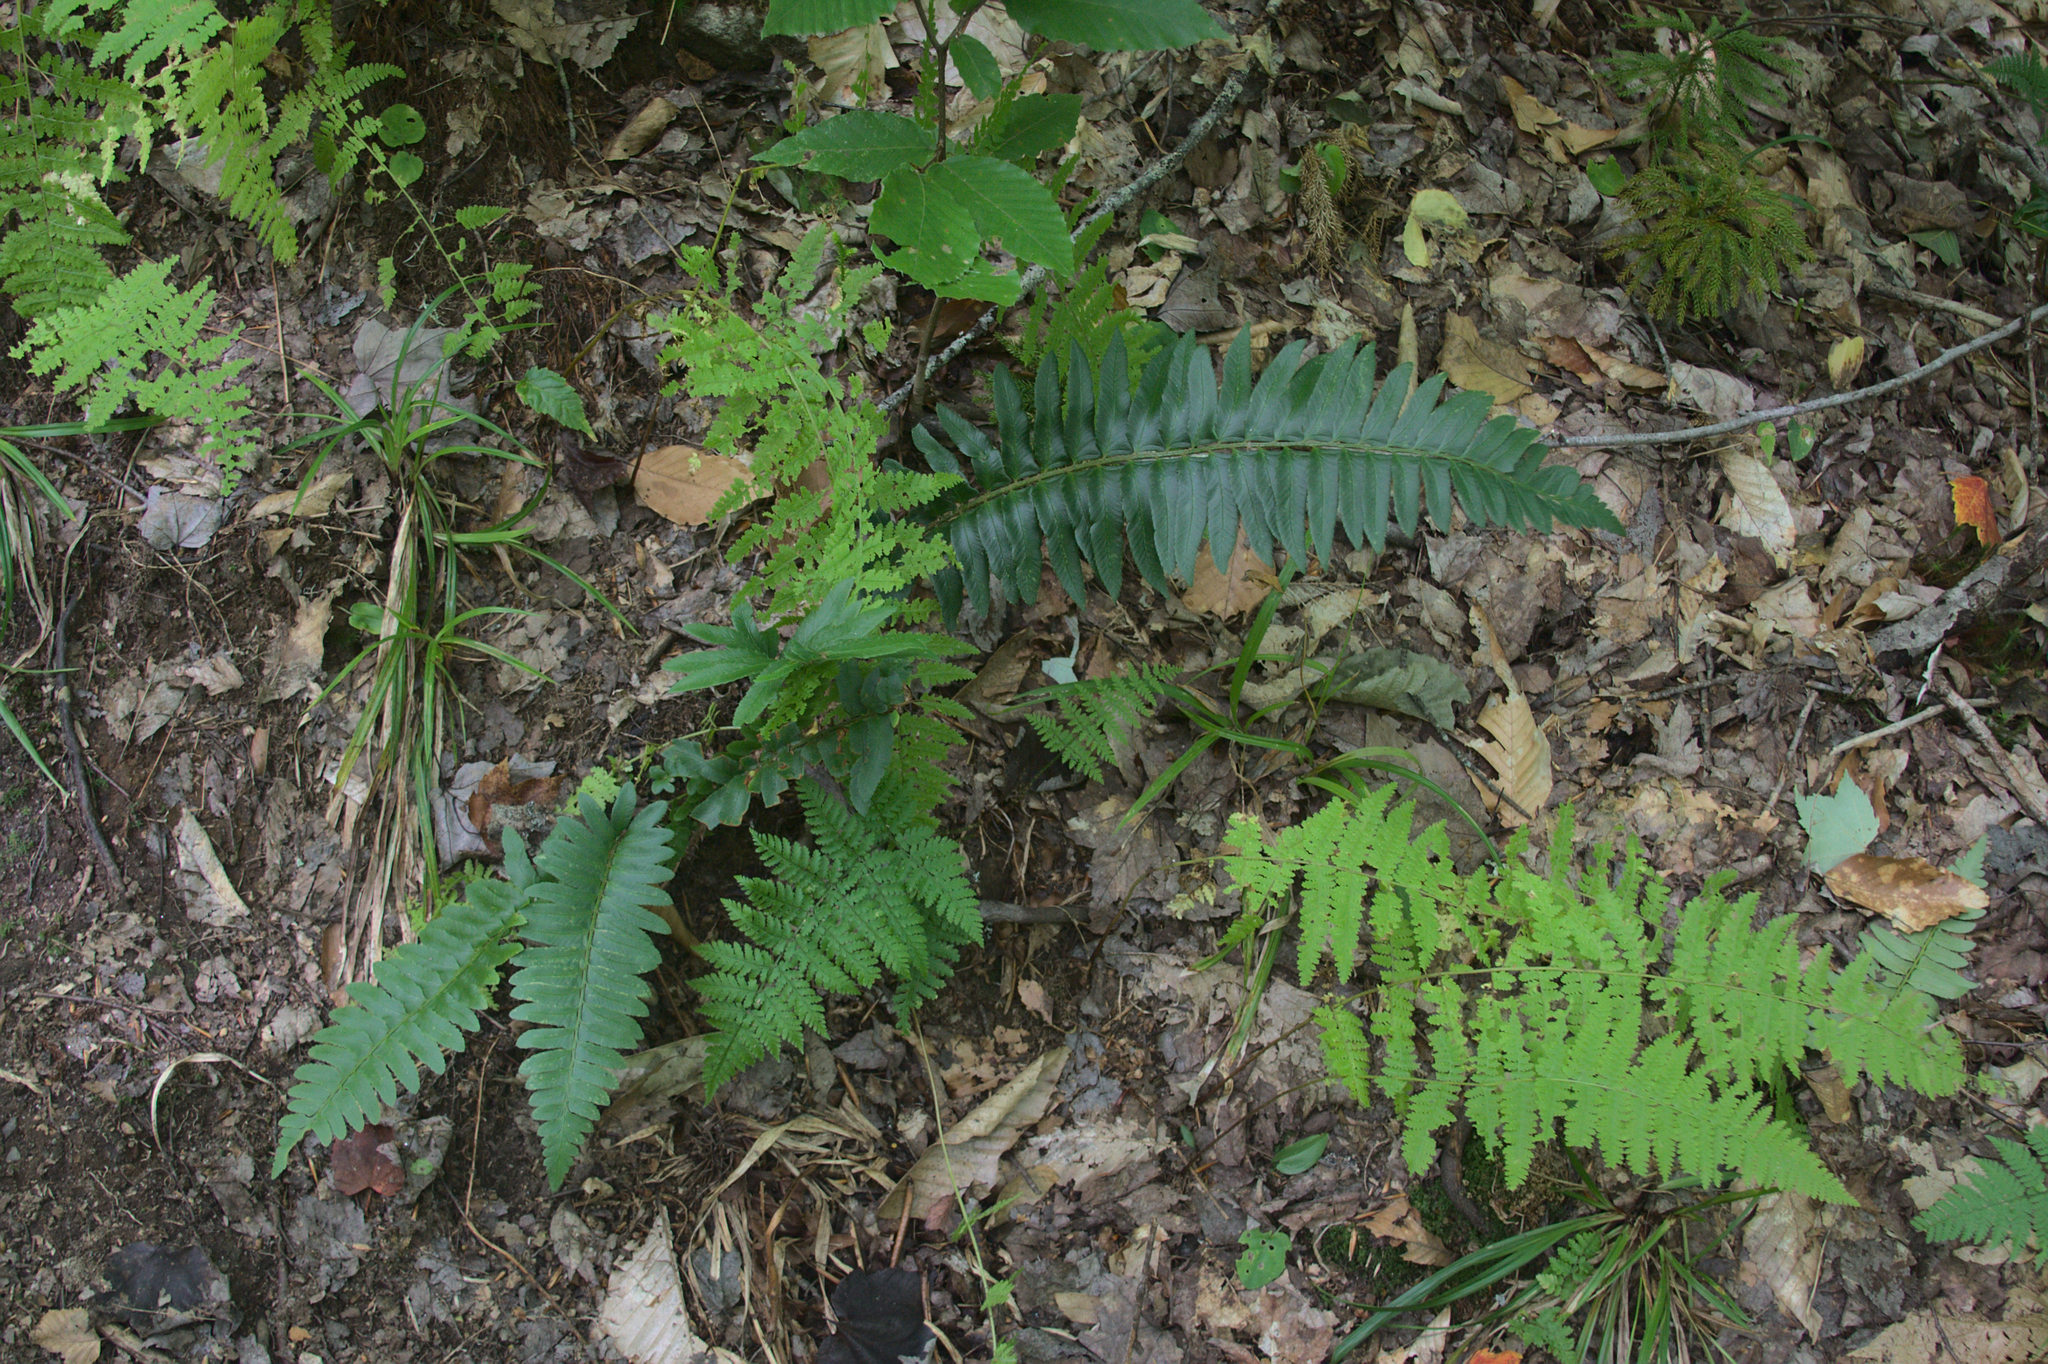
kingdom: Plantae
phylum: Tracheophyta
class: Polypodiopsida
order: Polypodiales
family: Dryopteridaceae
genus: Polystichum
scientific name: Polystichum acrostichoides
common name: Christmas fern
